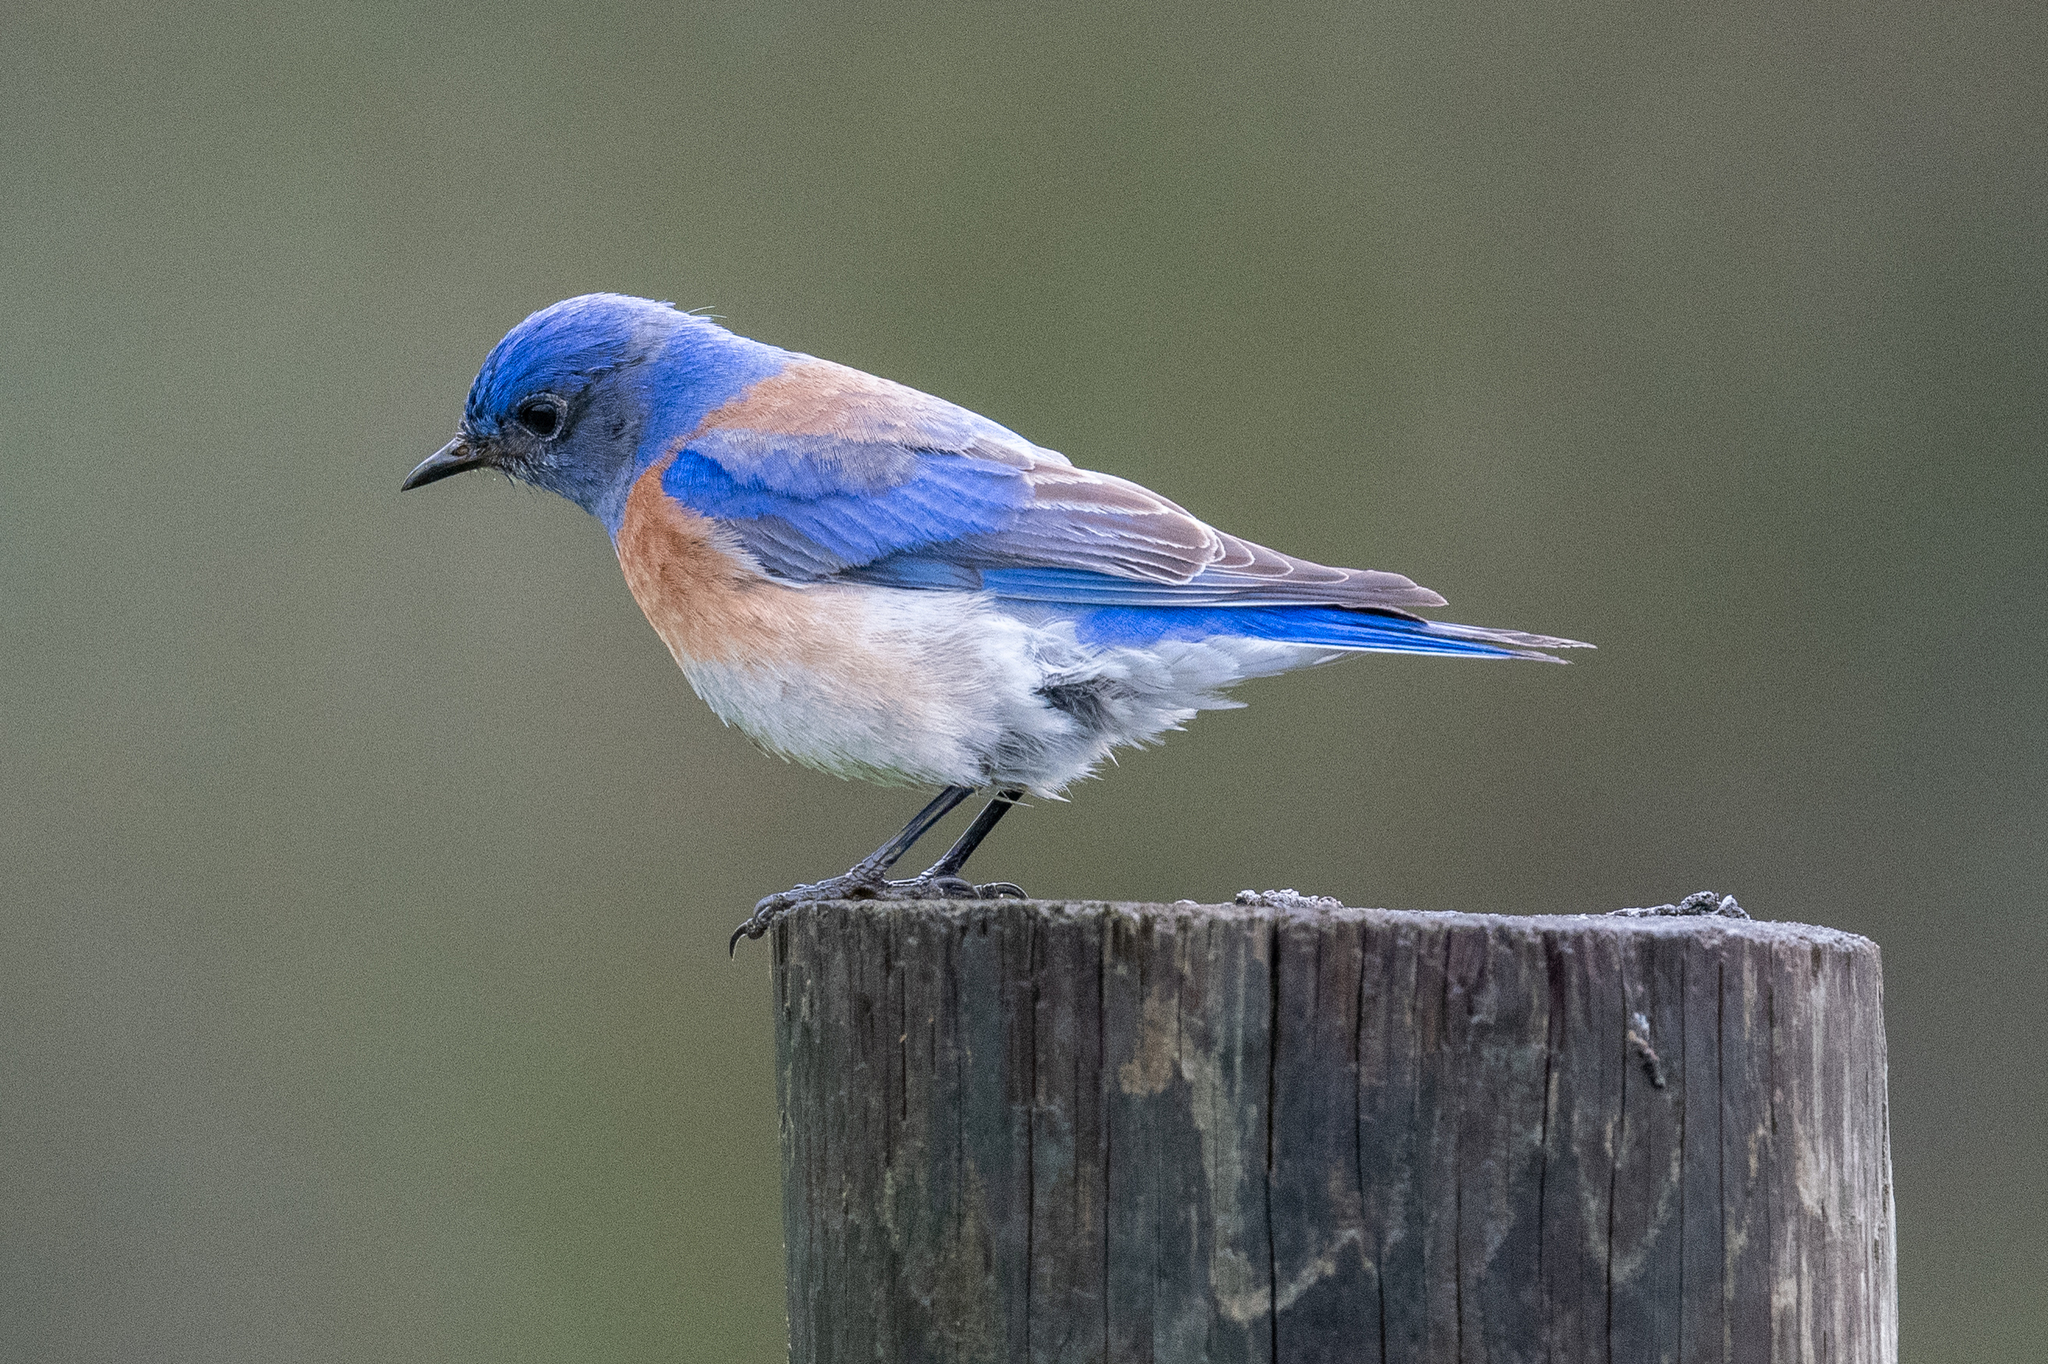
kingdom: Animalia
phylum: Chordata
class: Aves
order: Passeriformes
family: Turdidae
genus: Sialia
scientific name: Sialia mexicana
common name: Western bluebird
